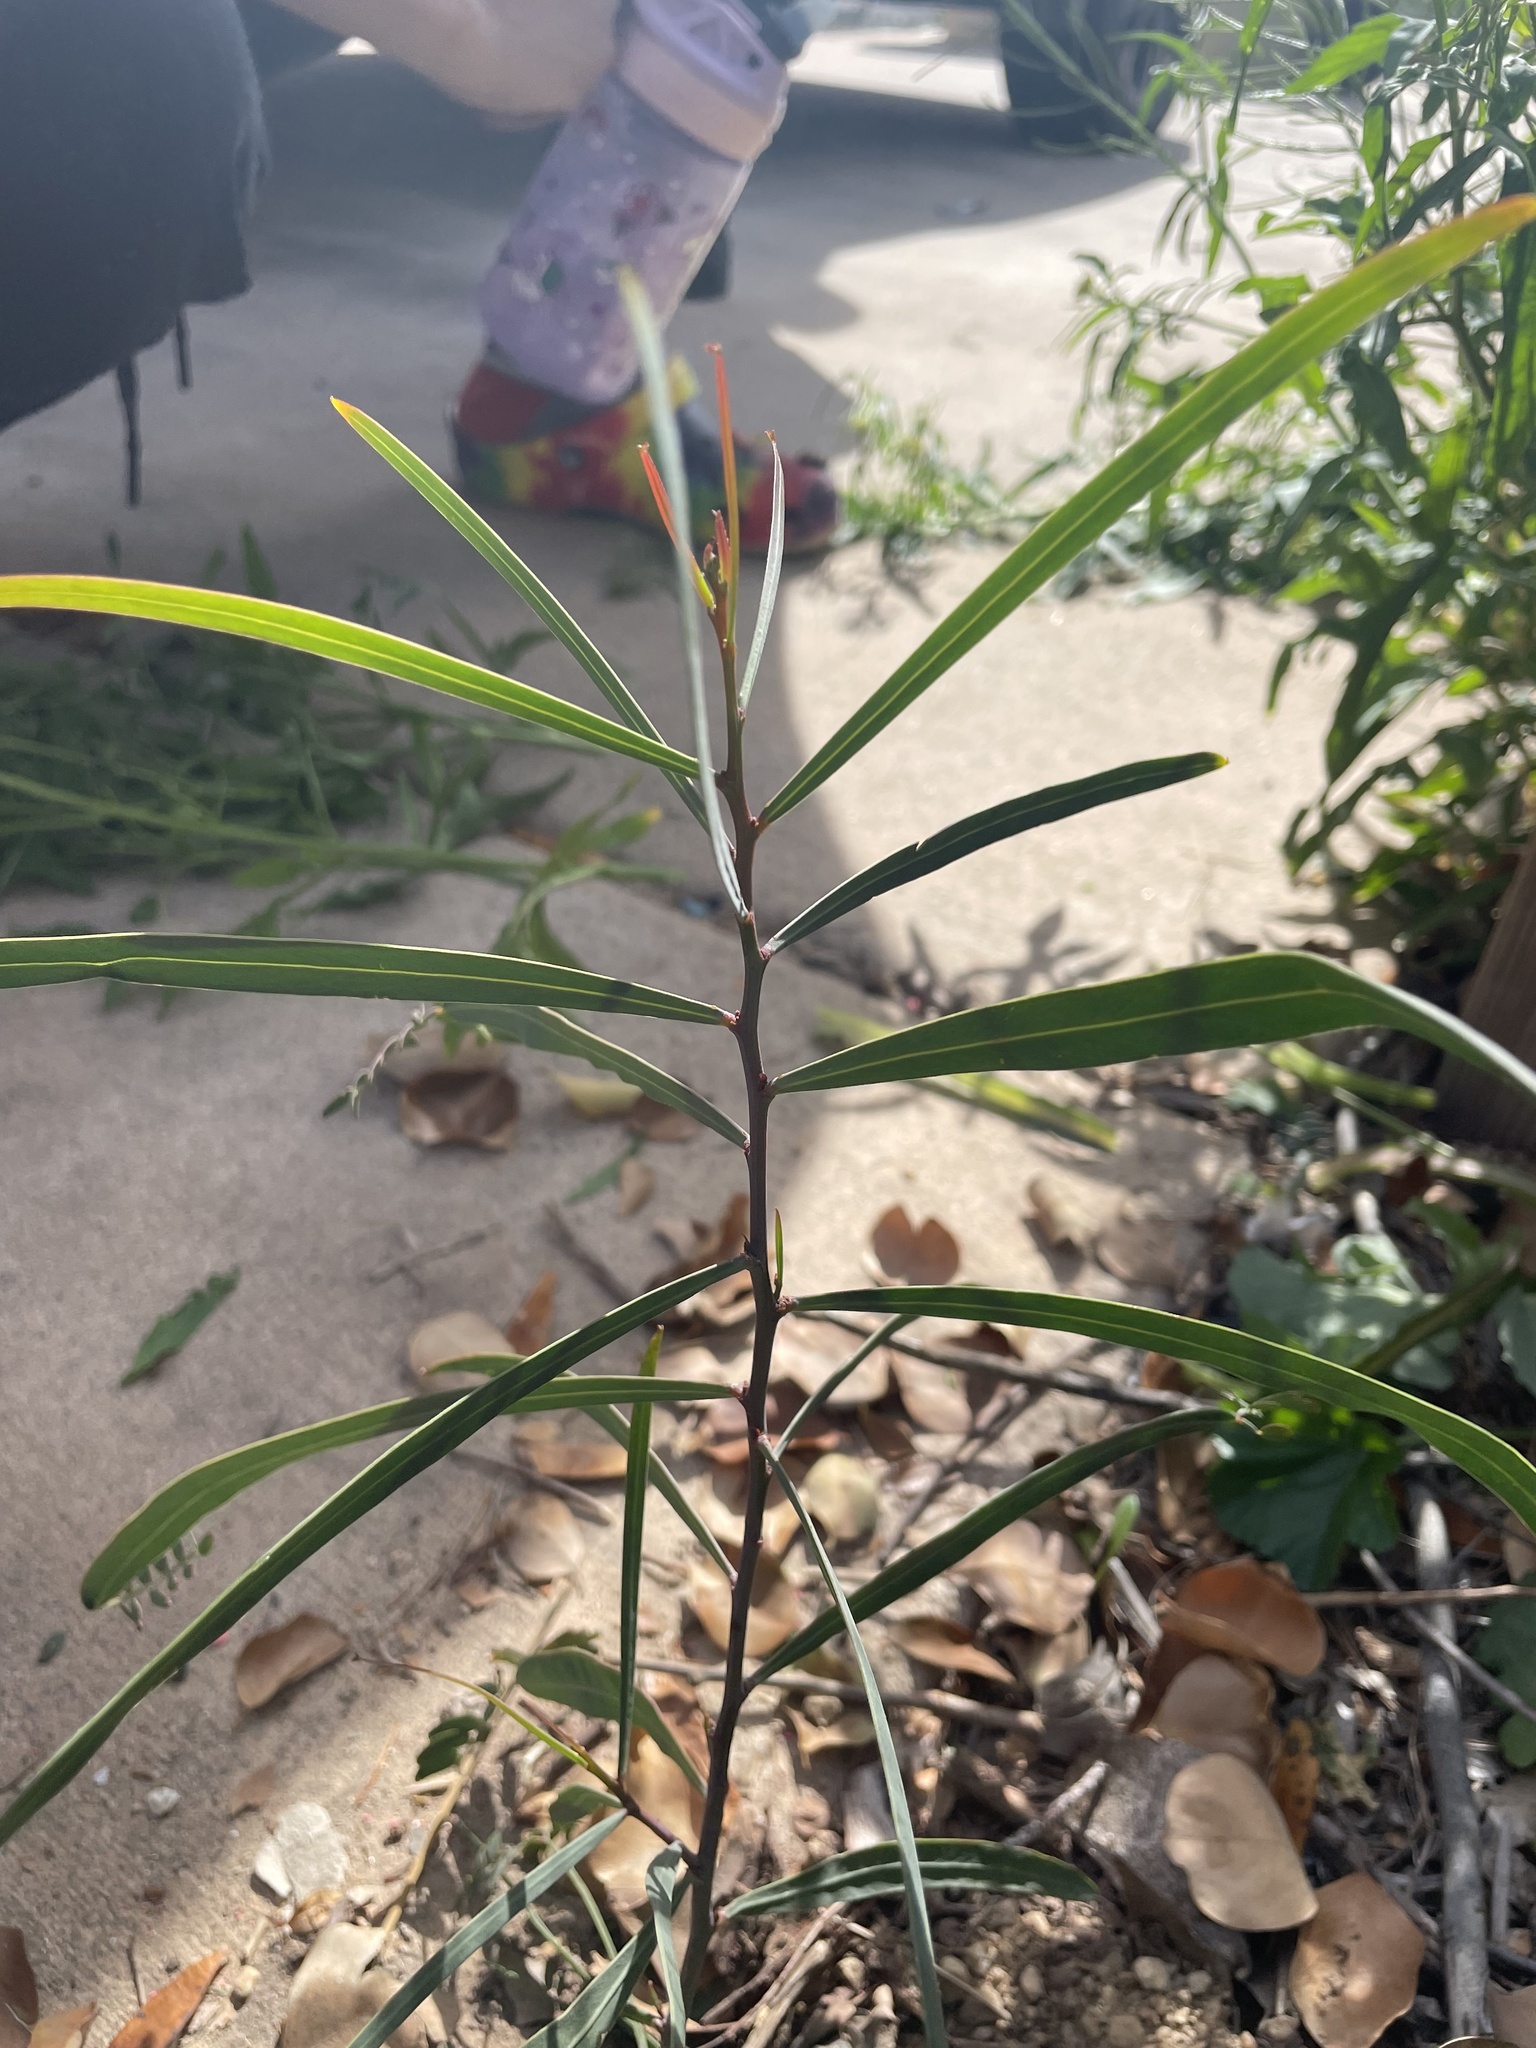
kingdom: Plantae
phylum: Tracheophyta
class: Magnoliopsida
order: Fabales
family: Fabaceae
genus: Acacia
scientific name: Acacia salicina
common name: Broughton willow wattle
